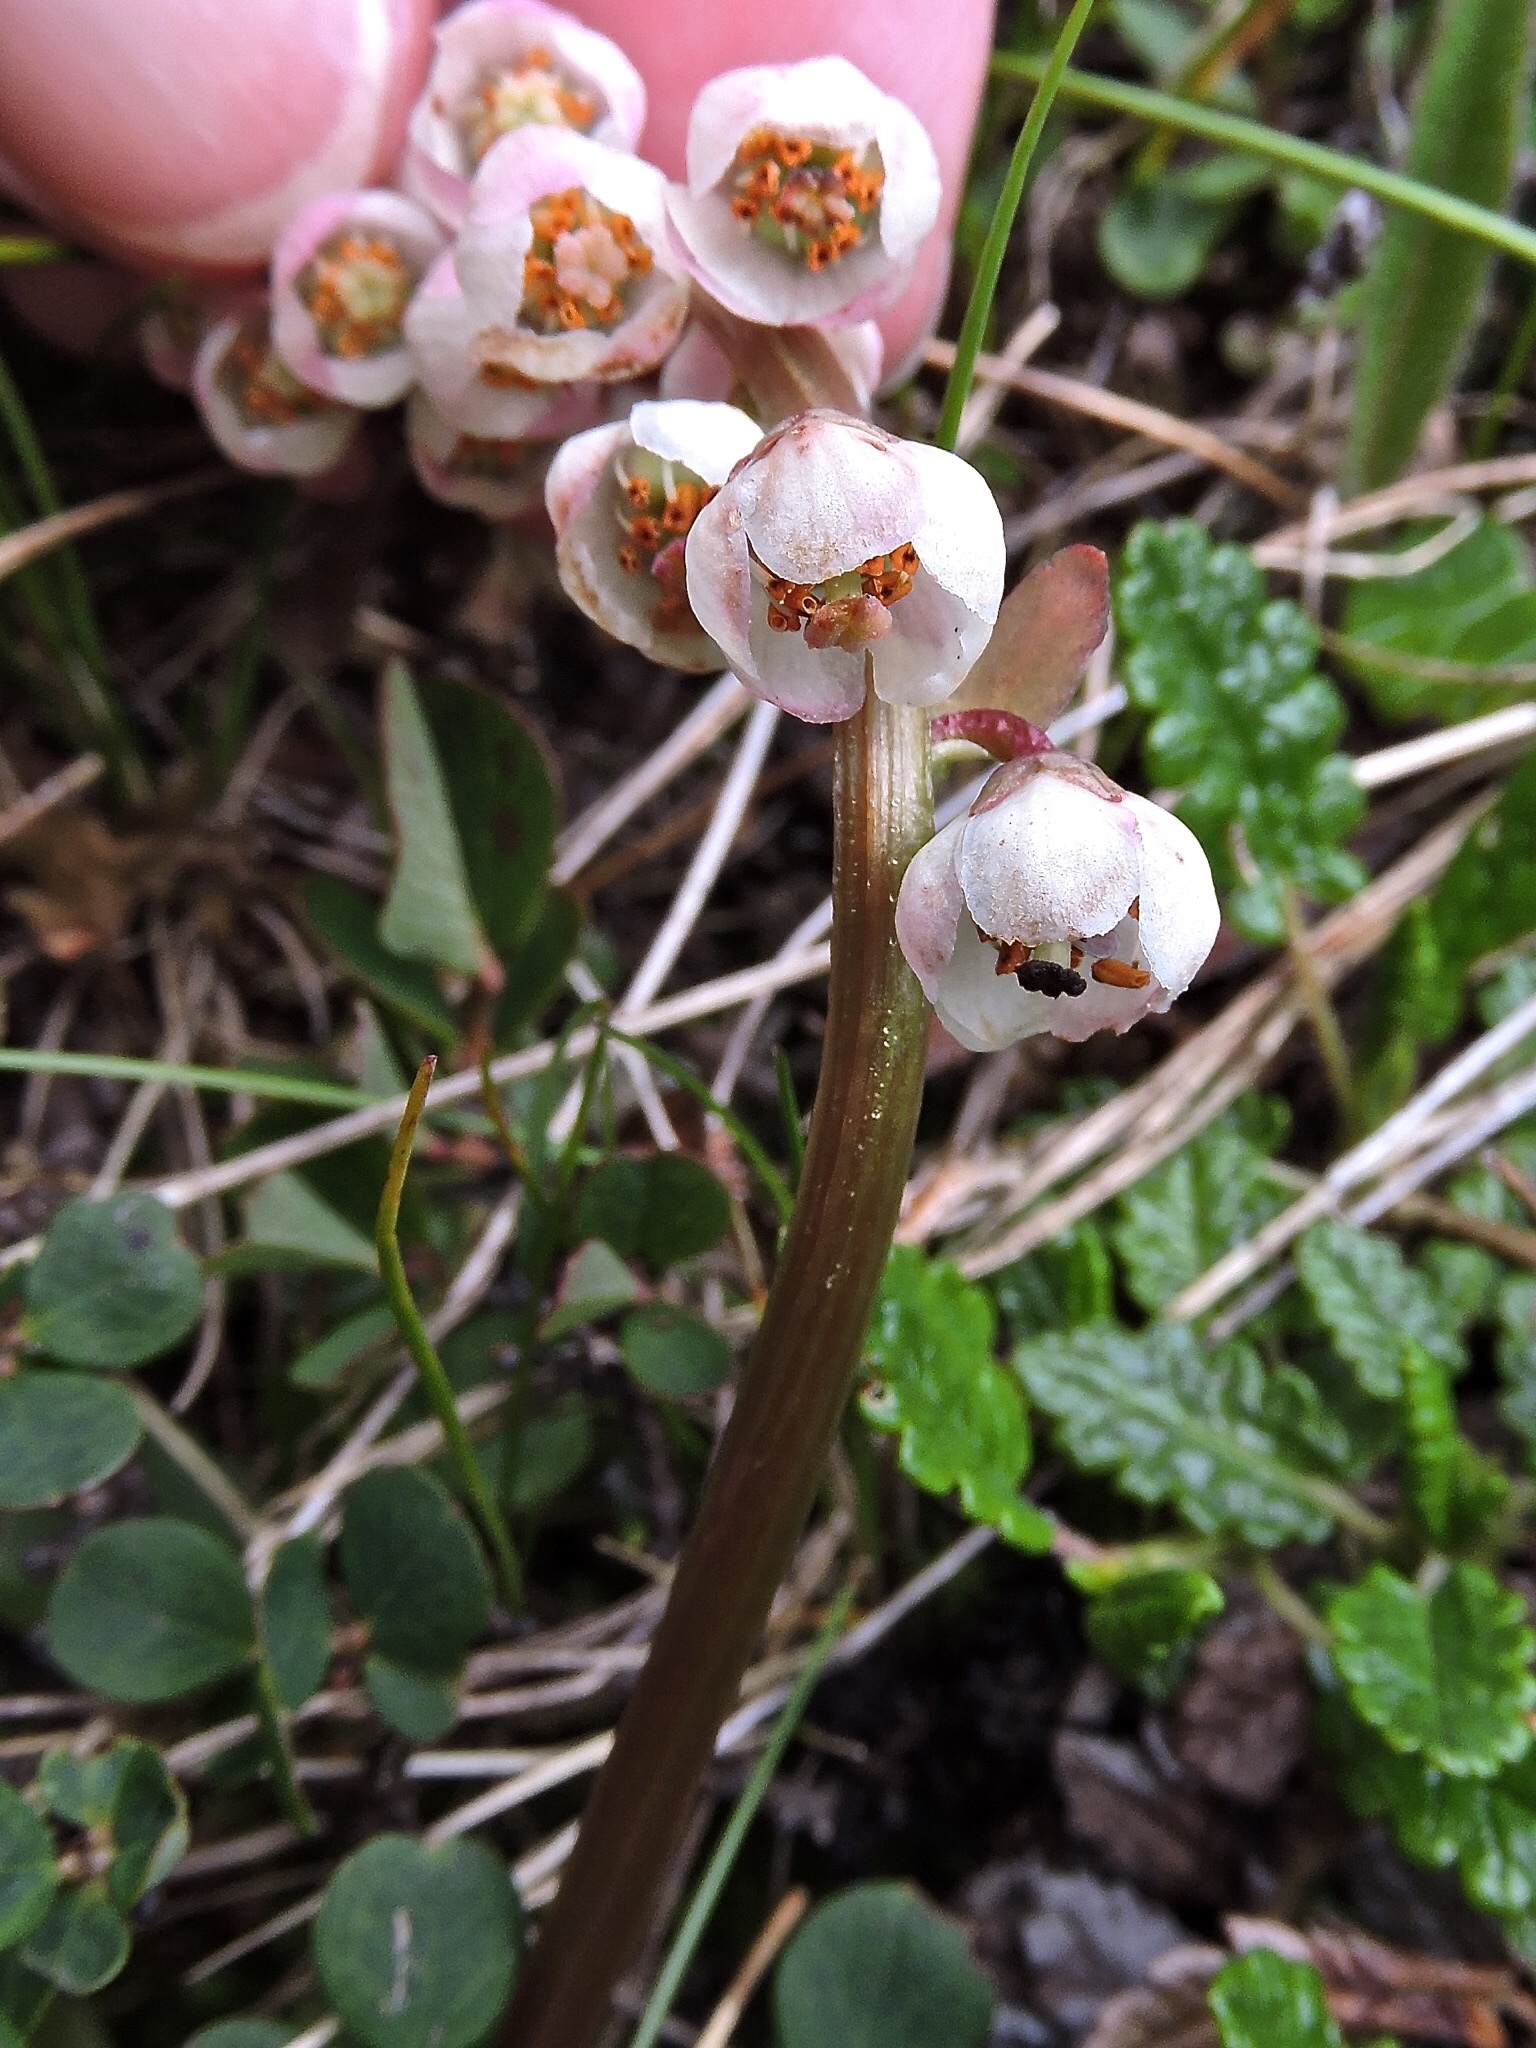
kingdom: Plantae
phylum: Tracheophyta
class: Magnoliopsida
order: Ericales
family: Ericaceae
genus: Pyrola
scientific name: Pyrola minor
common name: Common wintergreen
